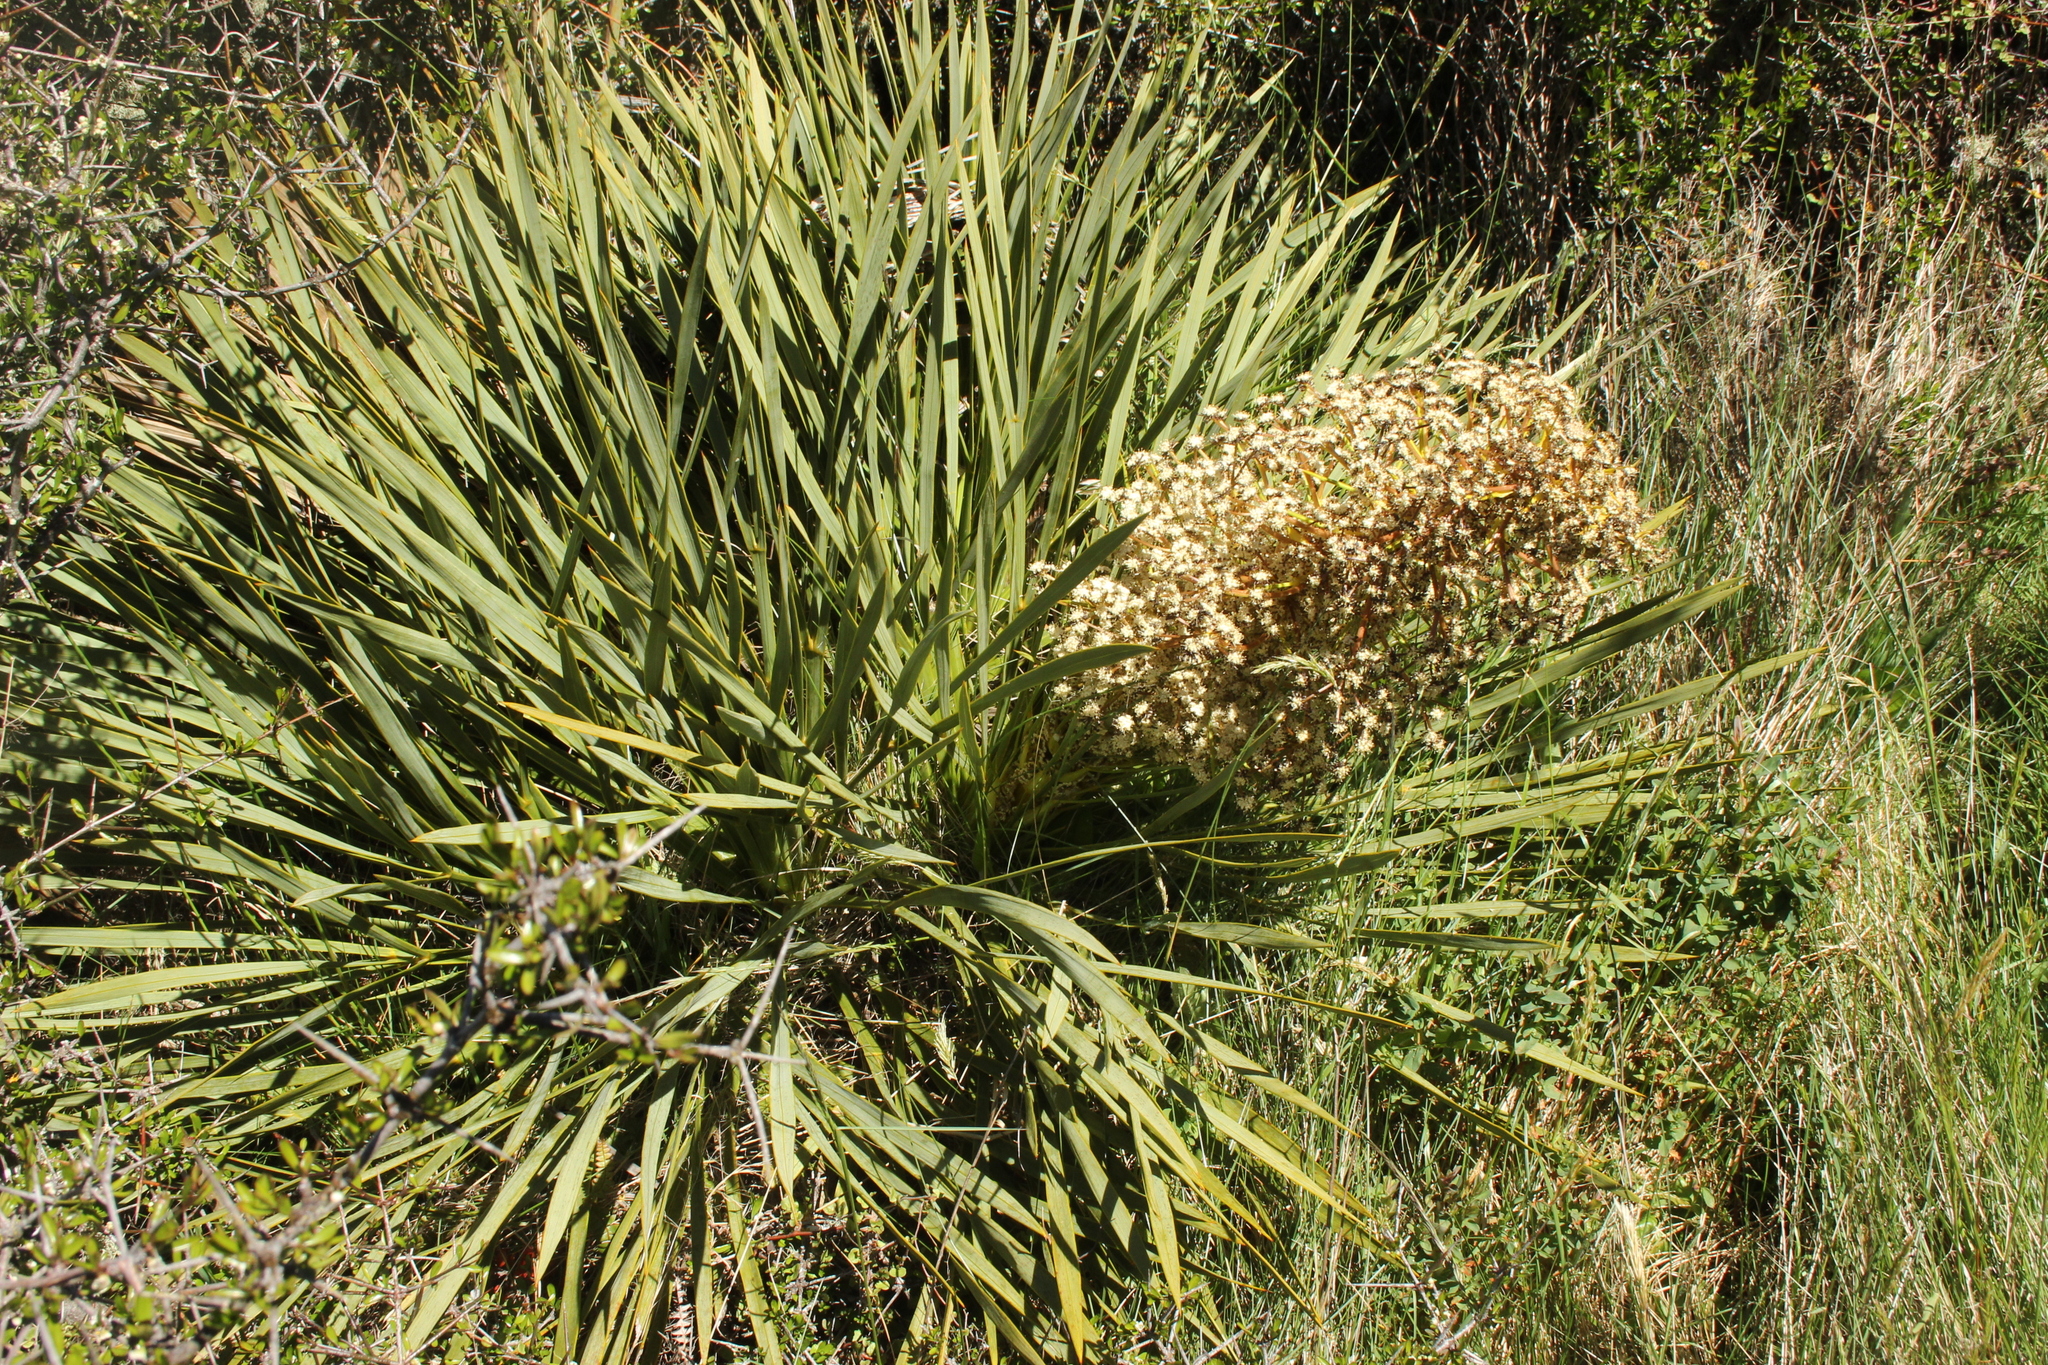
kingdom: Plantae
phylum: Tracheophyta
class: Magnoliopsida
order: Apiales
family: Apiaceae
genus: Aciphylla
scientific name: Aciphylla aurea
